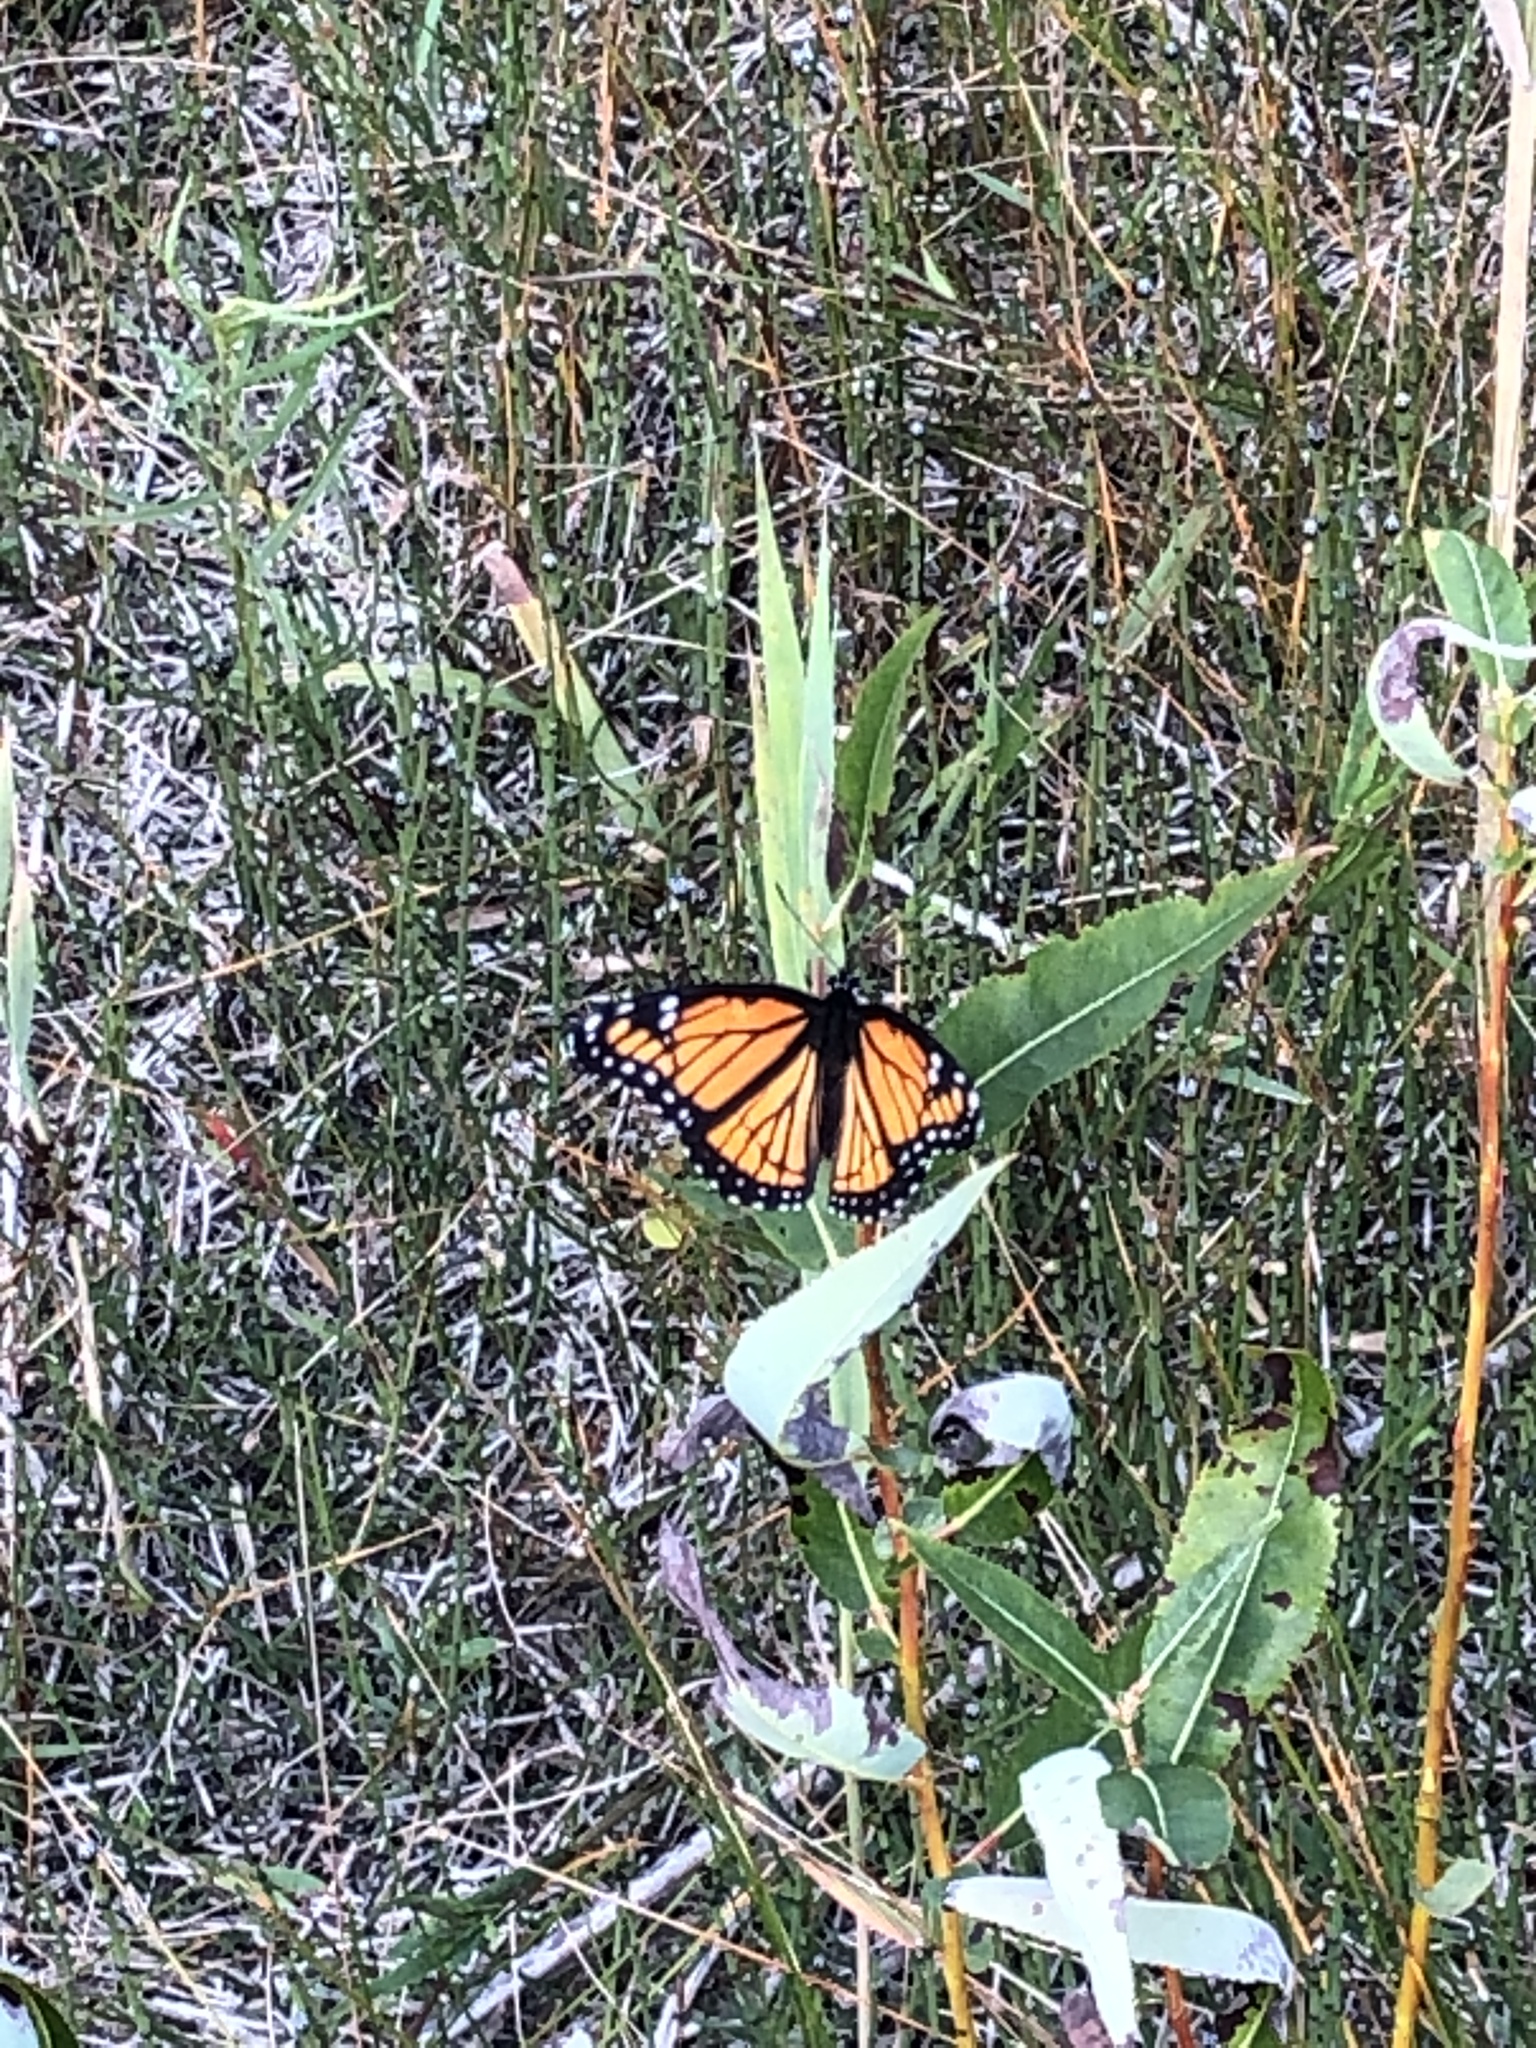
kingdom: Animalia
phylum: Arthropoda
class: Insecta
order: Lepidoptera
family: Nymphalidae
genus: Limenitis
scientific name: Limenitis archippus
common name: Viceroy
